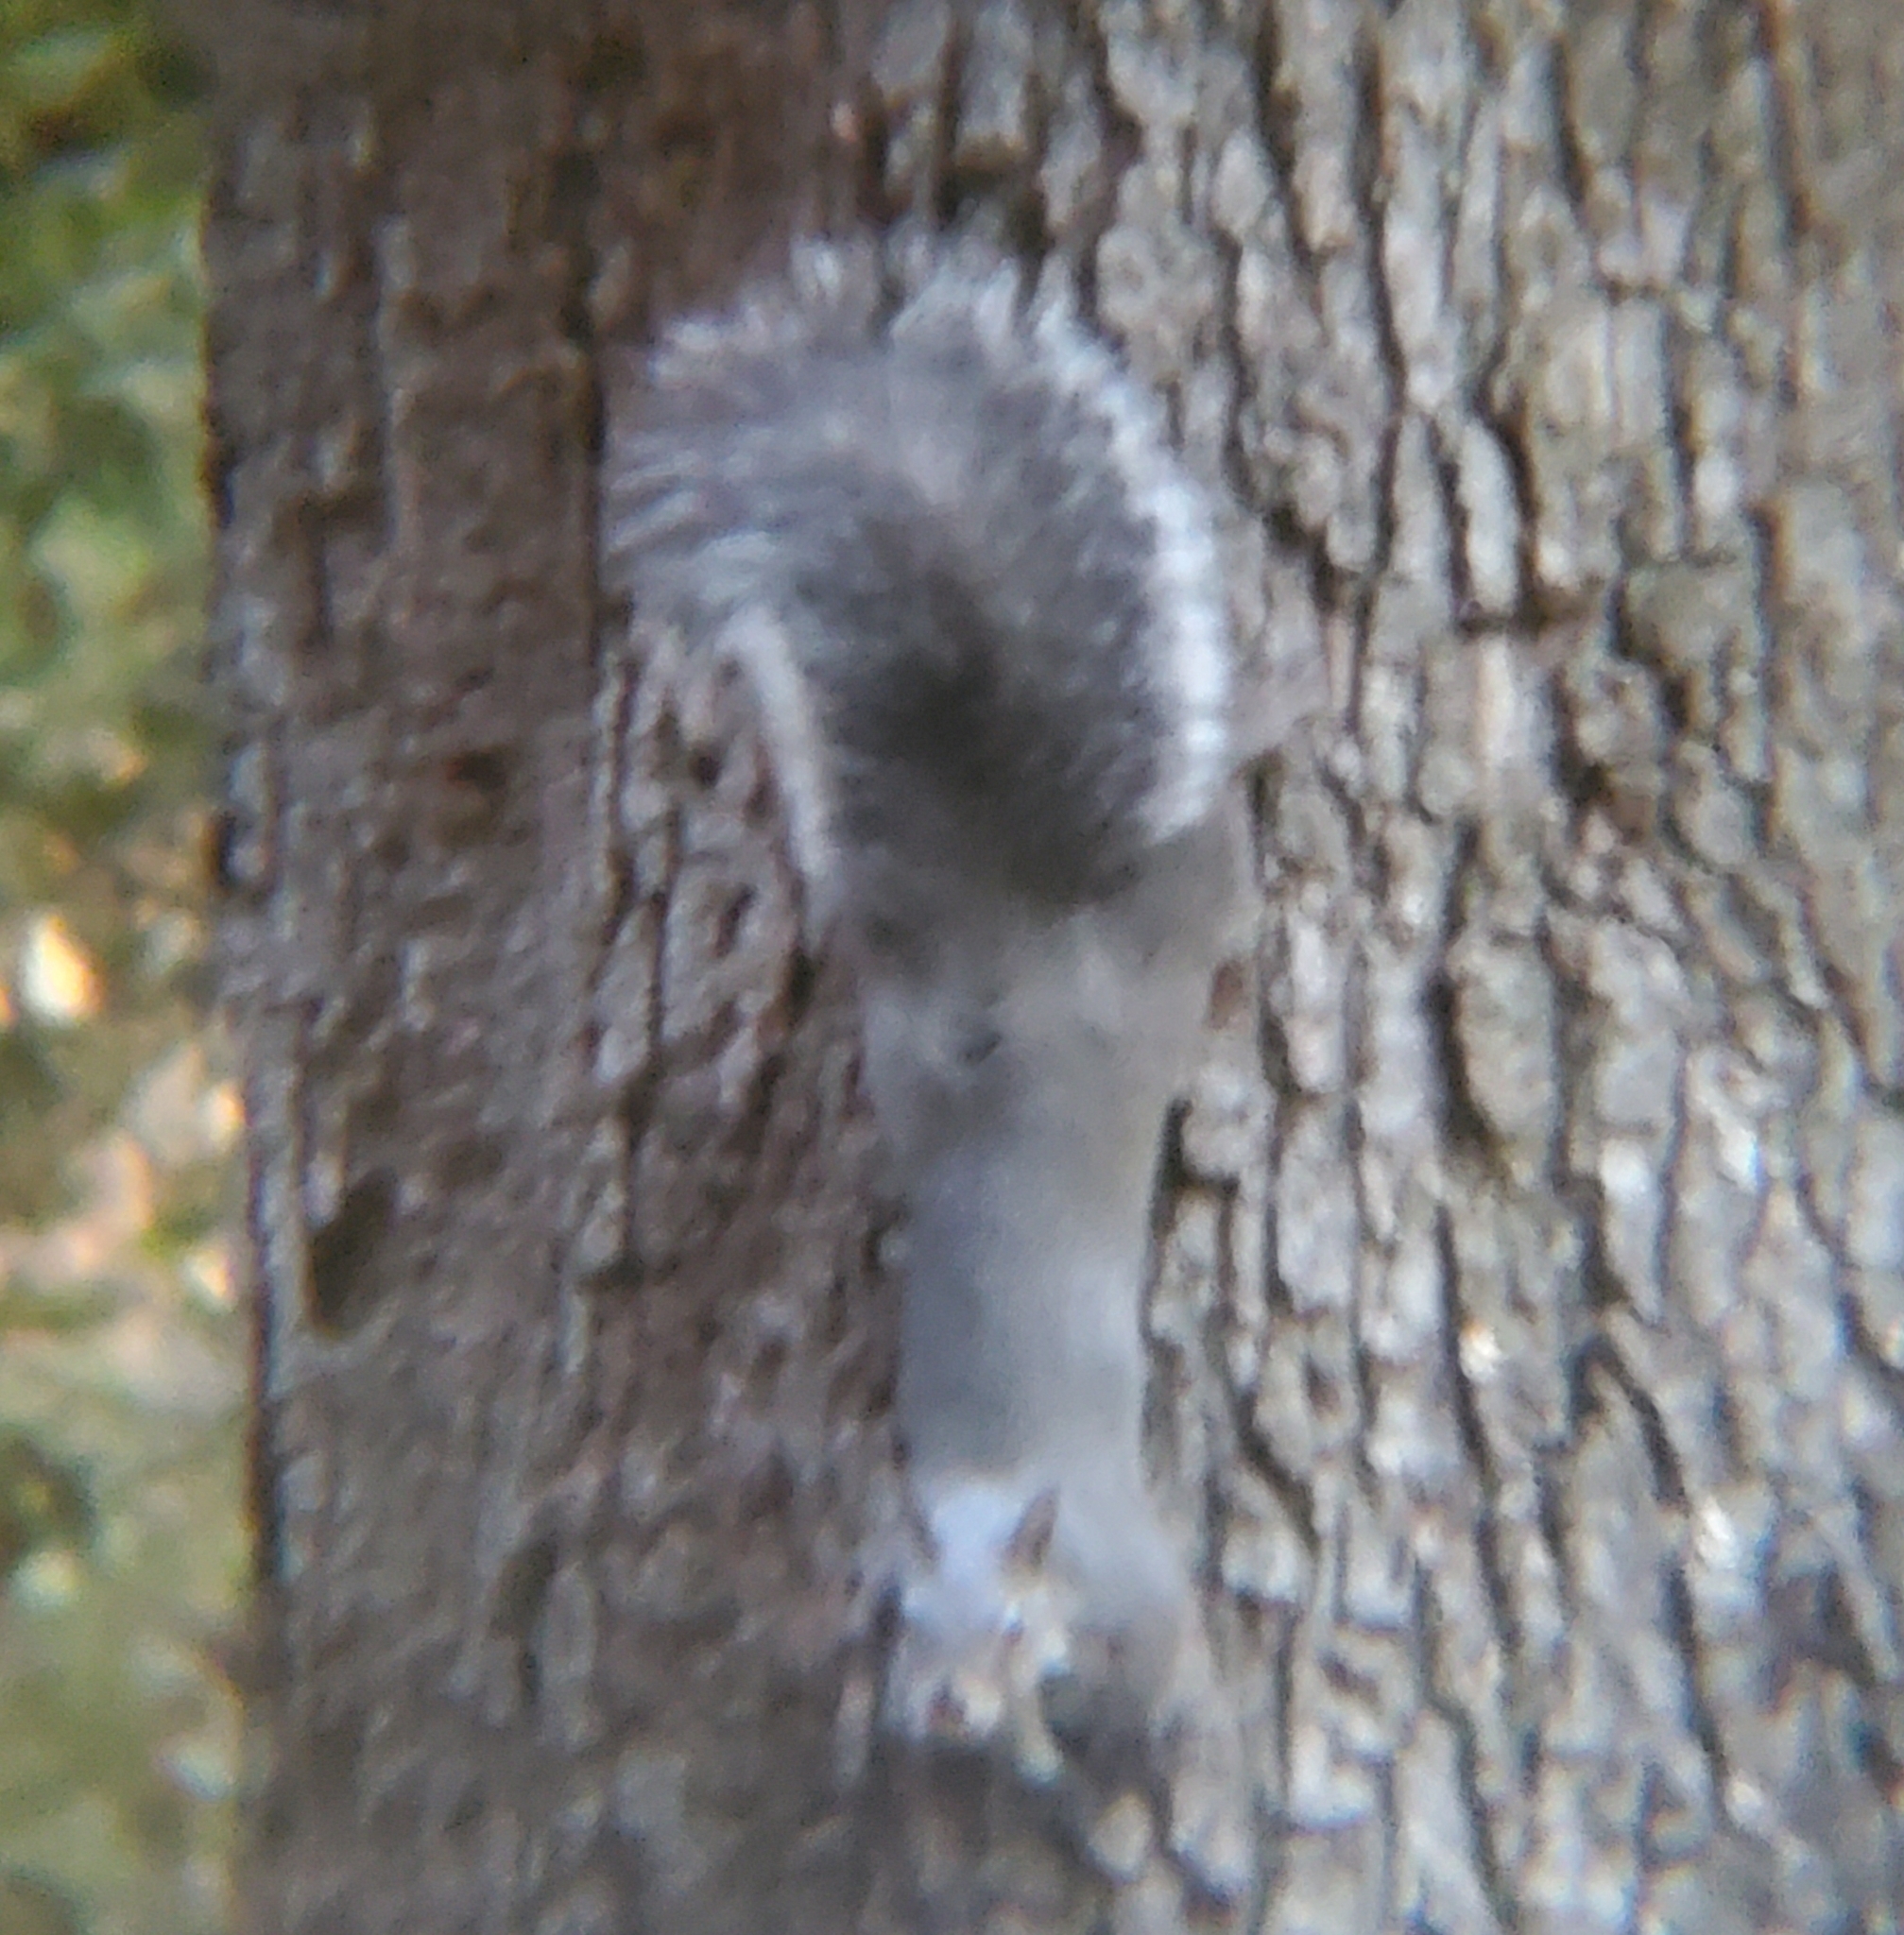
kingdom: Animalia
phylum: Chordata
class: Mammalia
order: Rodentia
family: Sciuridae
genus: Sciurus
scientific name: Sciurus griseus
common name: Western gray squirrel
